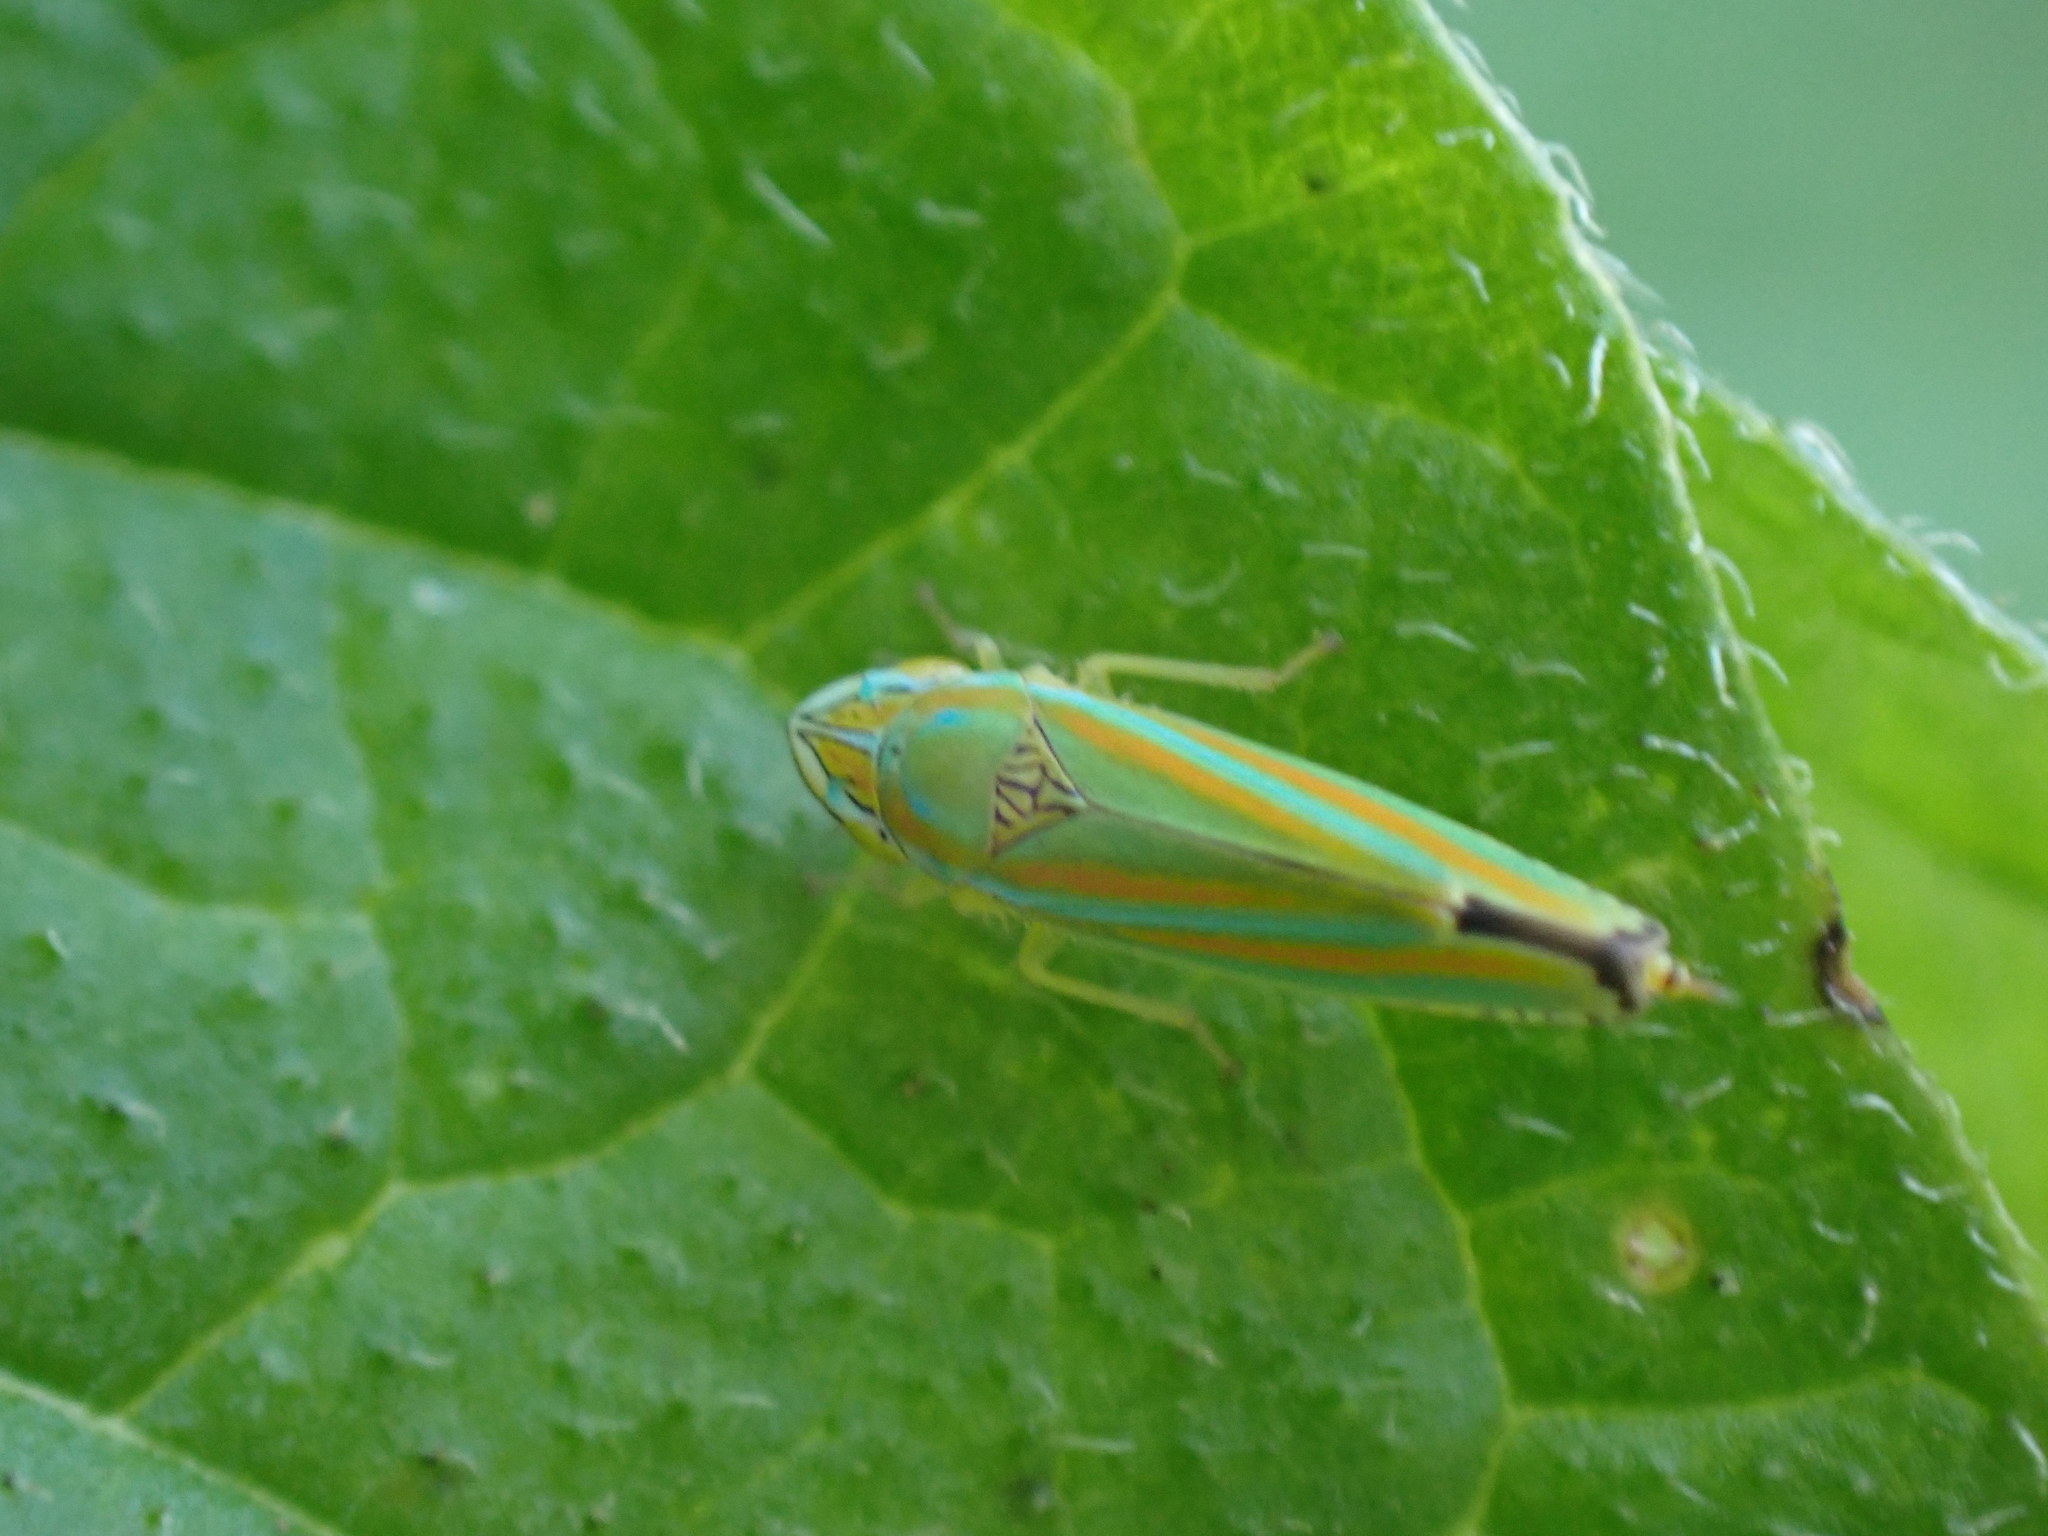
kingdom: Animalia
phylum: Arthropoda
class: Insecta
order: Hemiptera
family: Cicadellidae
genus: Graphocephala
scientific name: Graphocephala versuta
